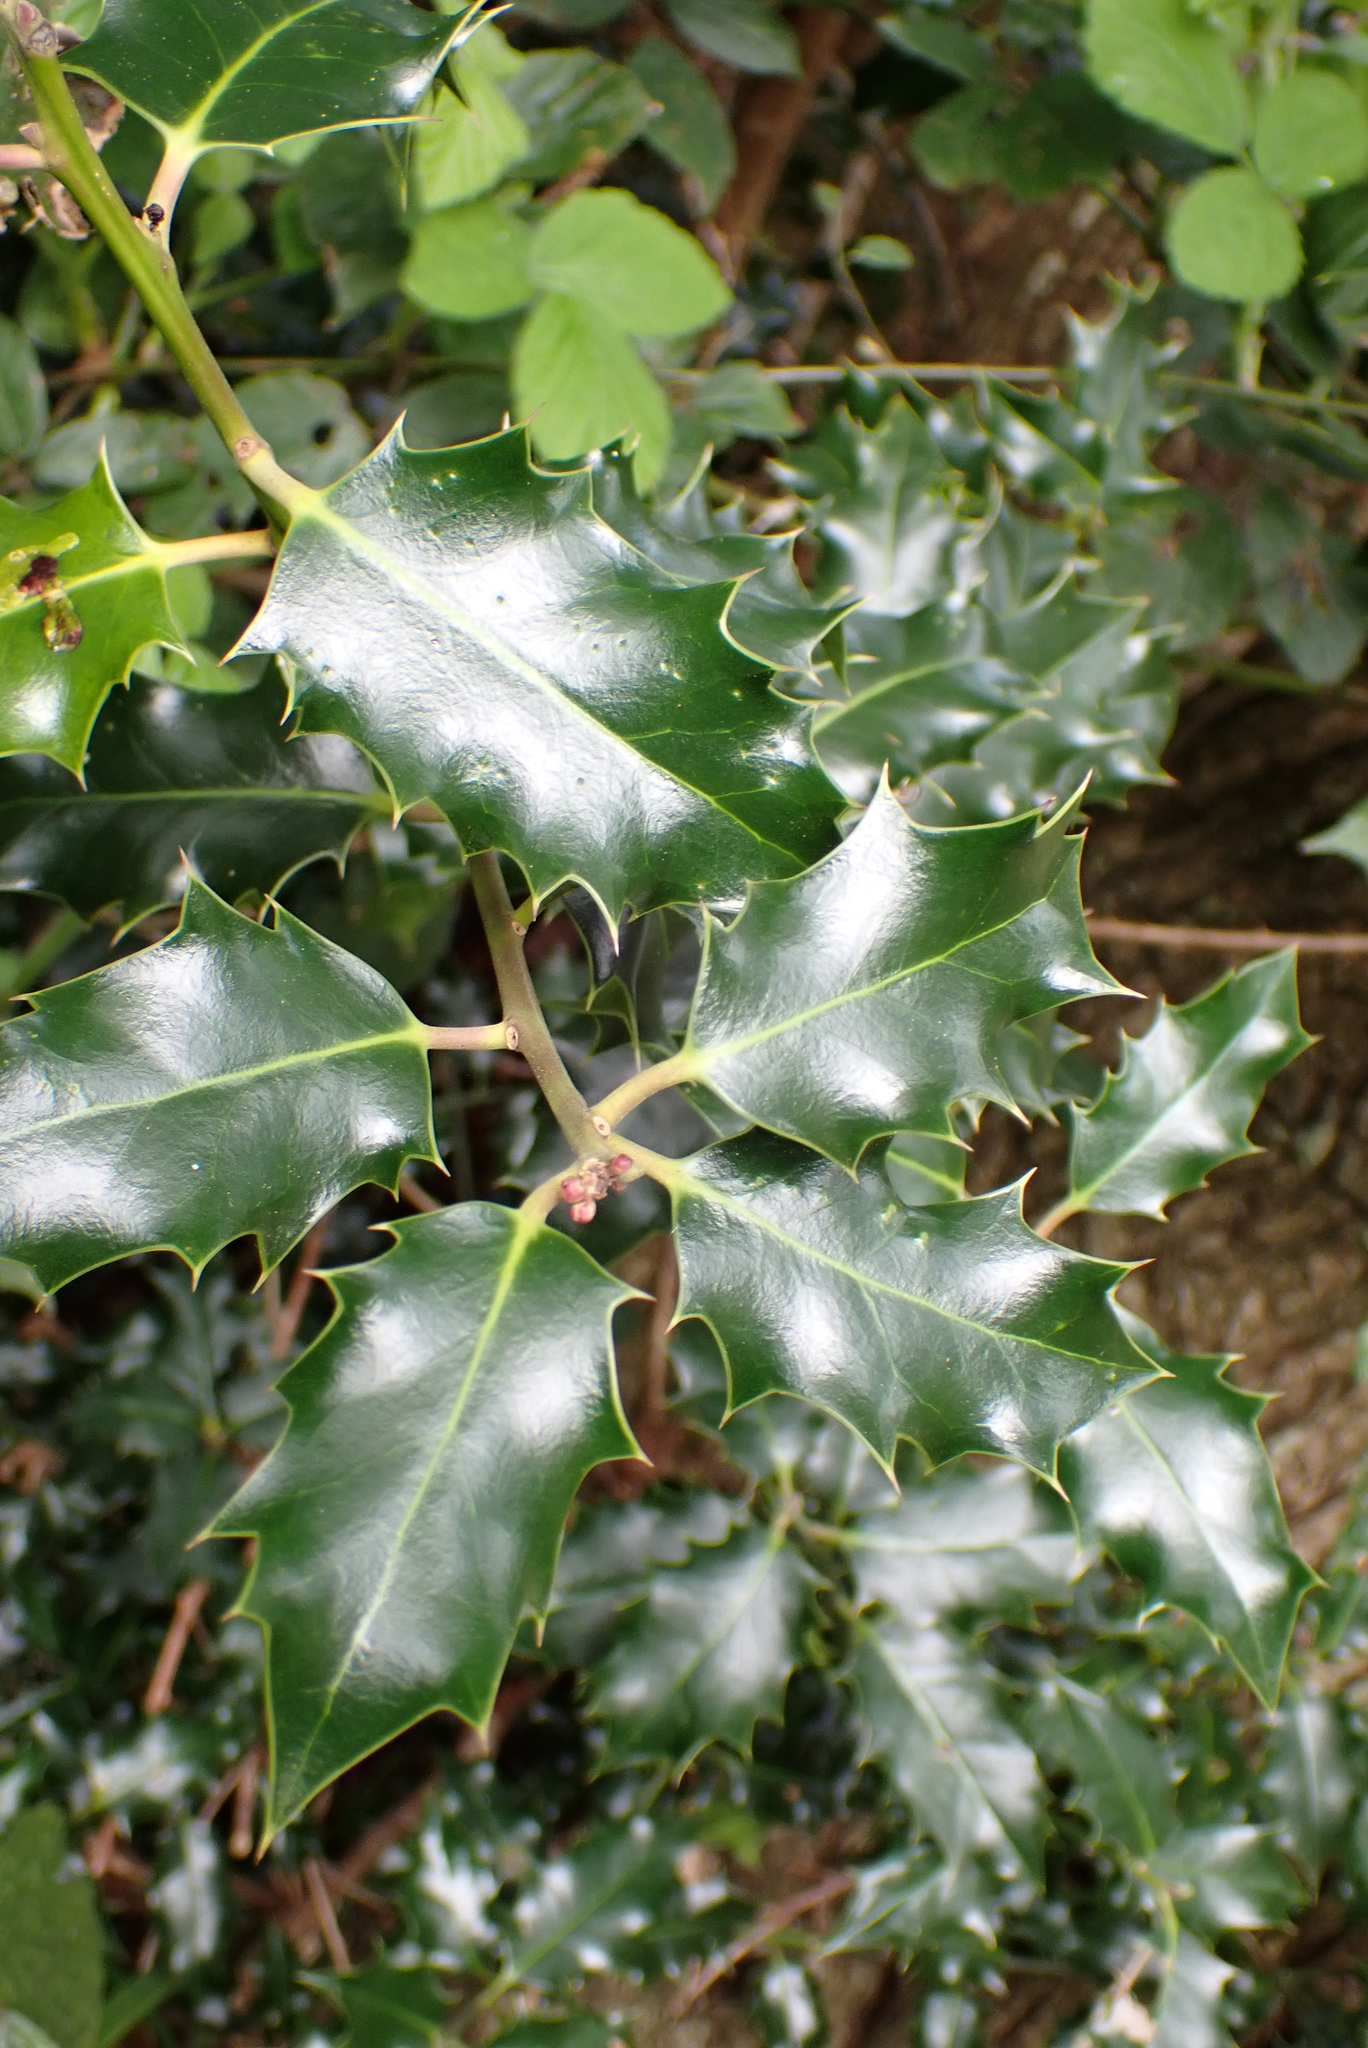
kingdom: Plantae
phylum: Tracheophyta
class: Magnoliopsida
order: Aquifoliales
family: Aquifoliaceae
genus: Ilex
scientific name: Ilex aquifolium
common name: English holly
